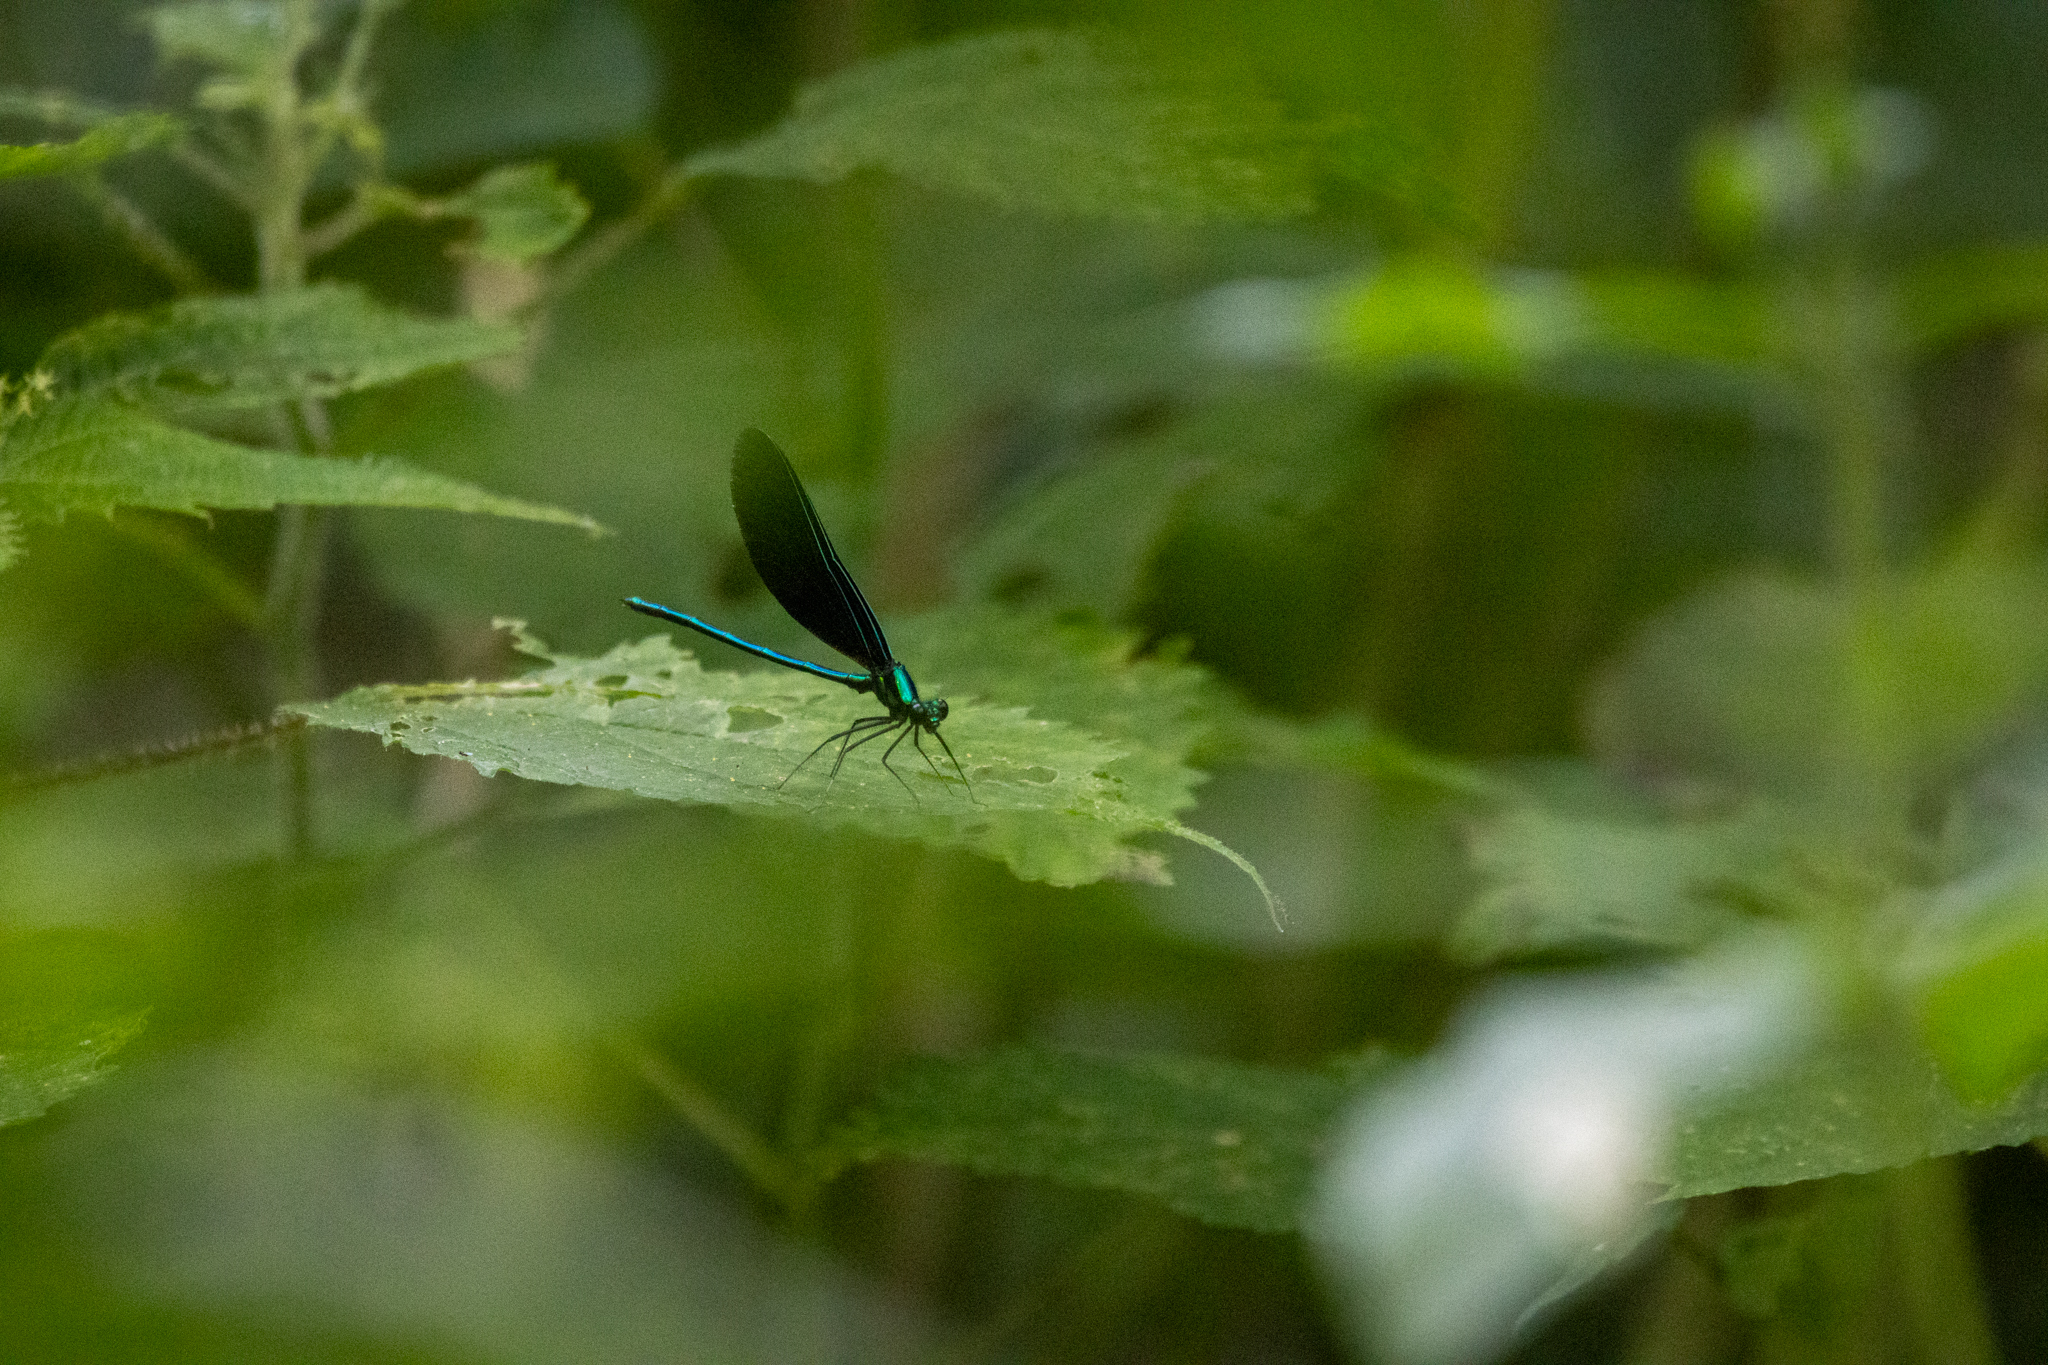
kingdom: Animalia
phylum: Arthropoda
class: Insecta
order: Odonata
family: Calopterygidae
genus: Calopteryx
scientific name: Calopteryx maculata
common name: Ebony jewelwing
